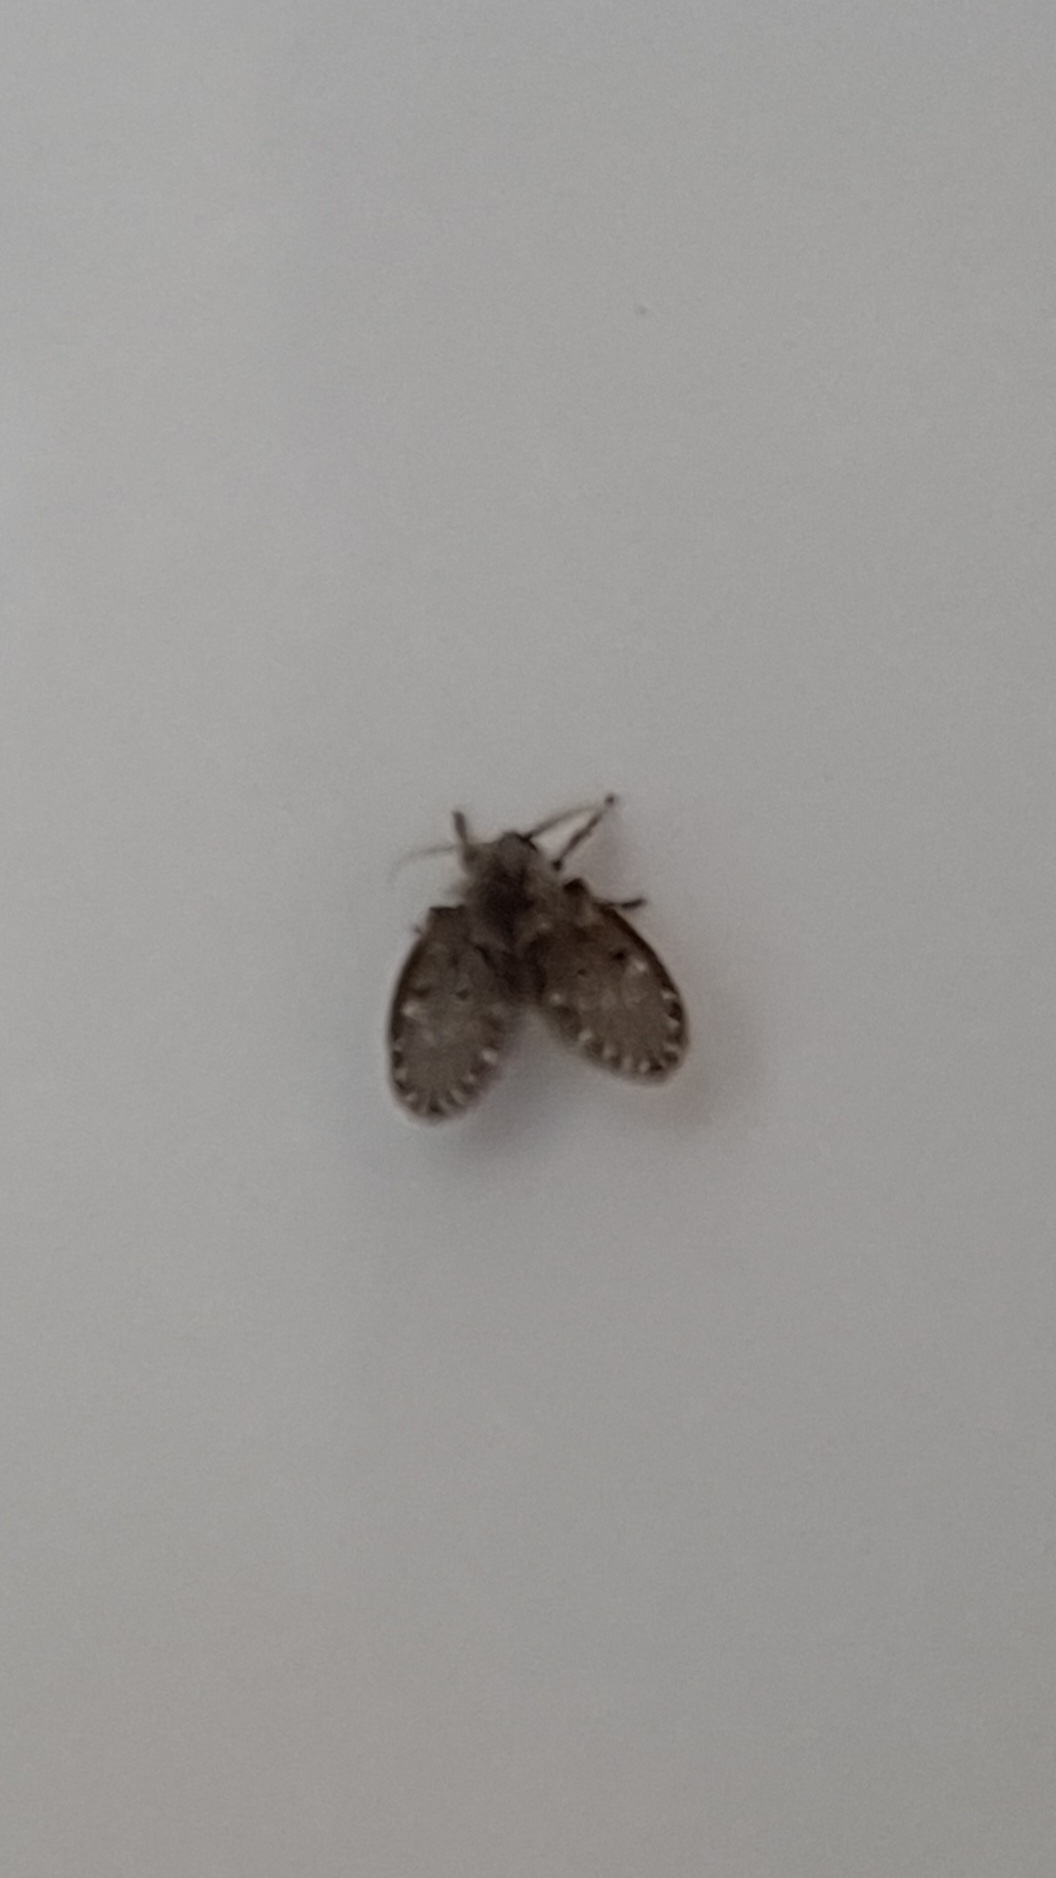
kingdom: Animalia
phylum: Arthropoda
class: Insecta
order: Diptera
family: Psychodidae
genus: Clogmia
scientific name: Clogmia albipunctatus
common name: White-spotted moth fly
